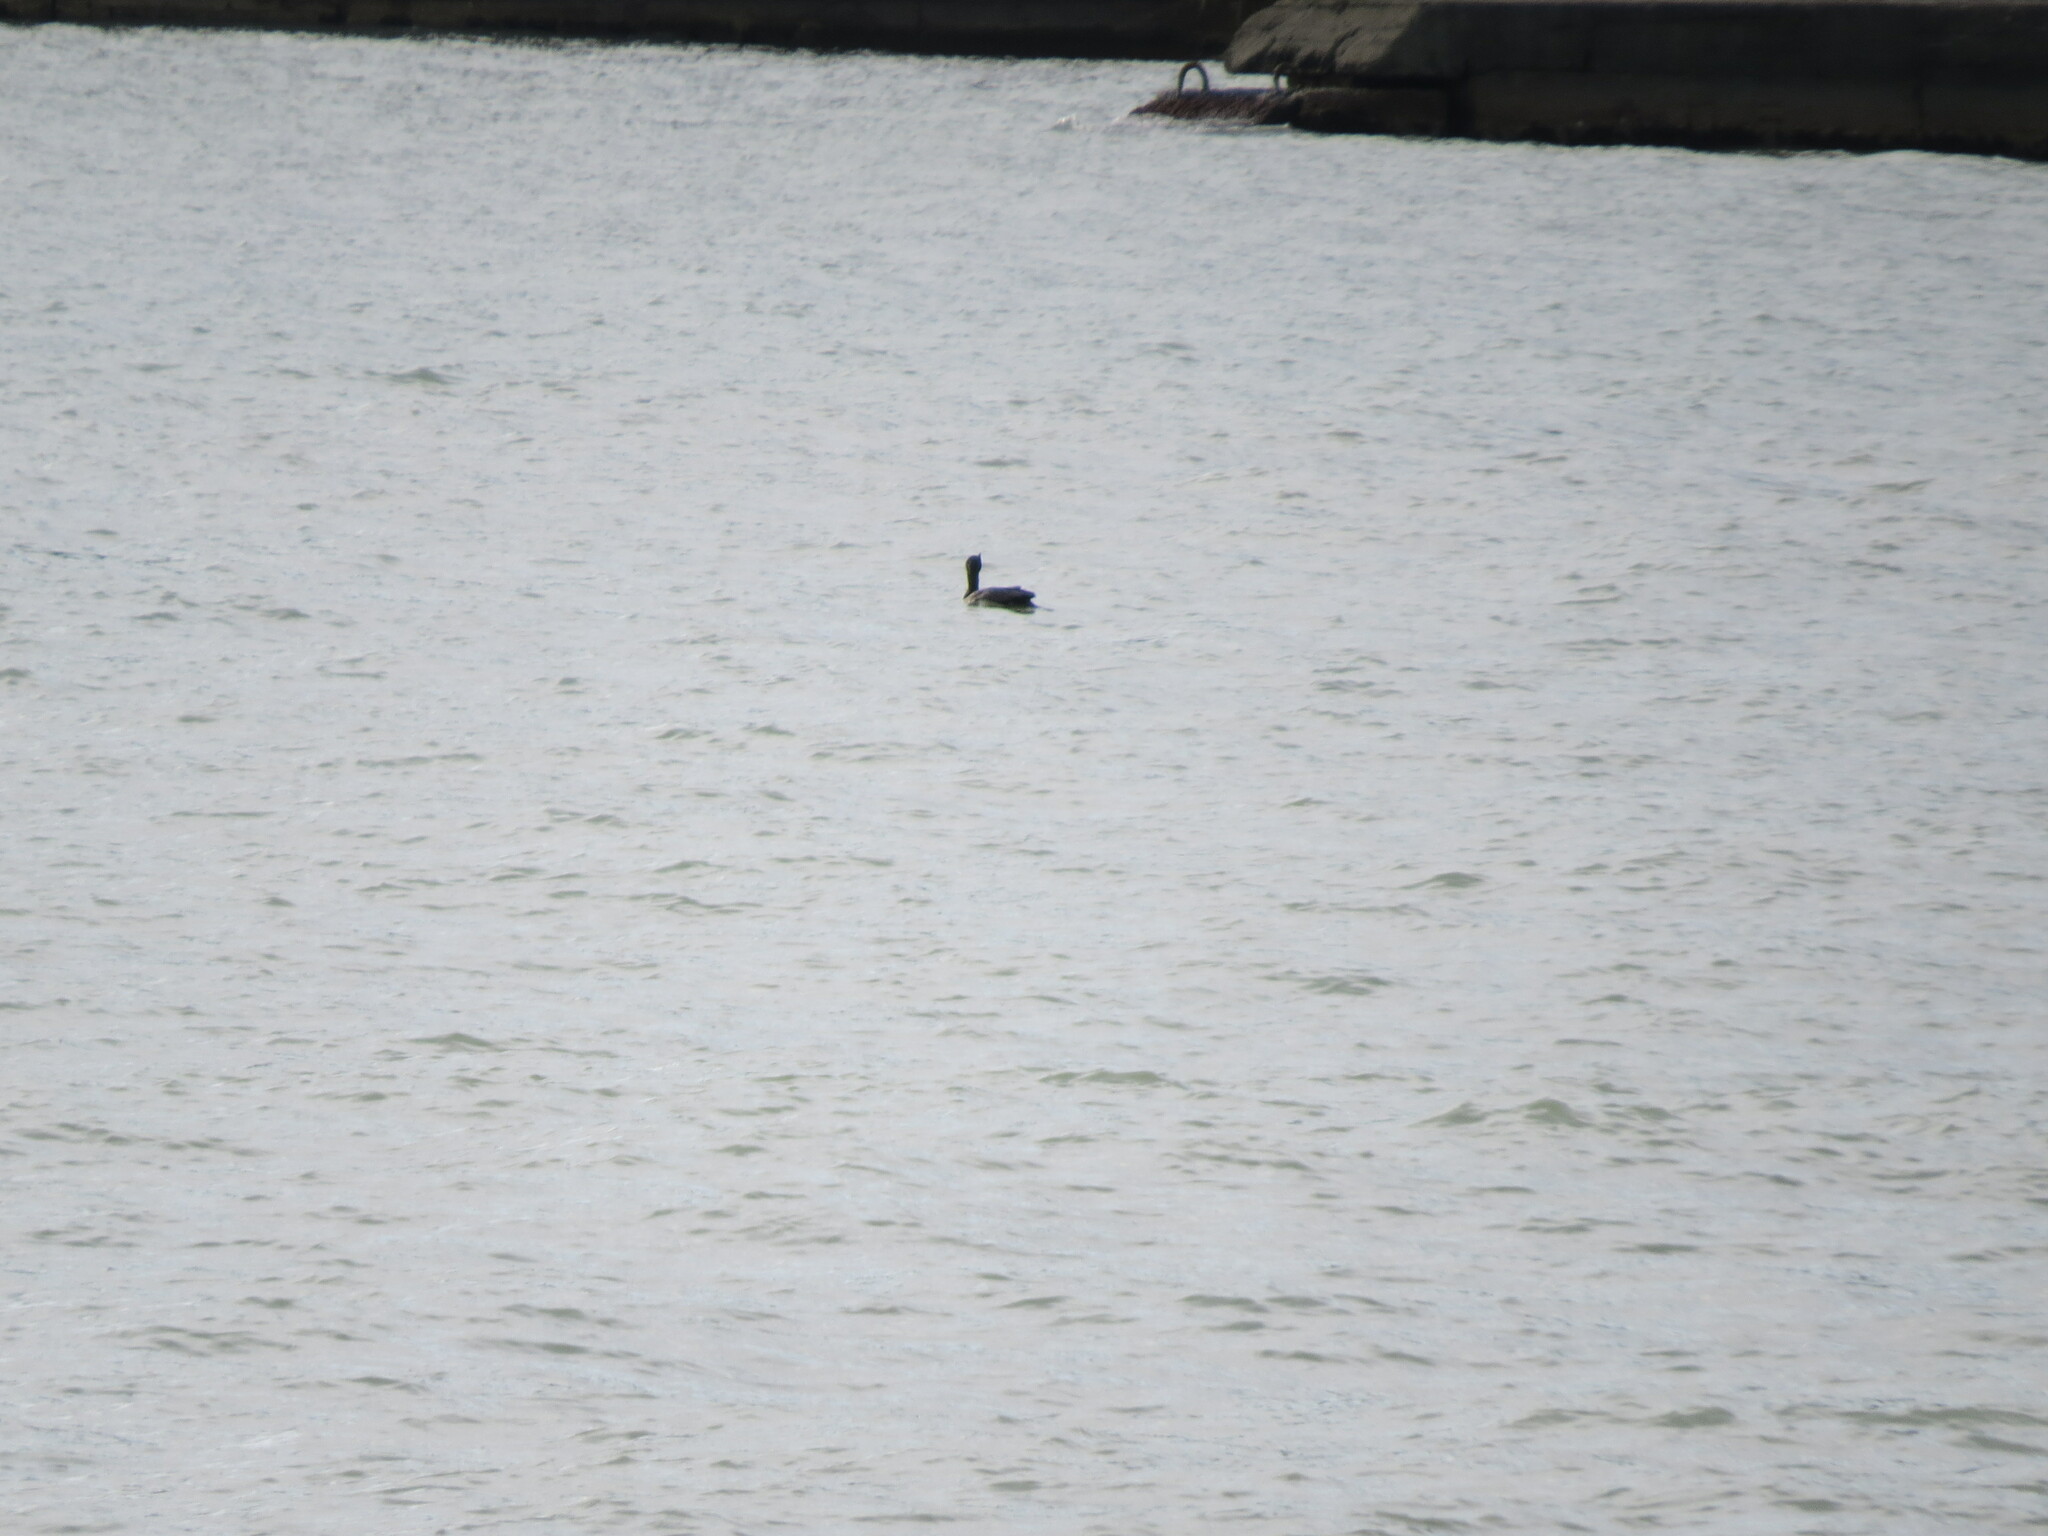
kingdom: Animalia
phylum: Chordata
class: Aves
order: Suliformes
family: Phalacrocoracidae
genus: Phalacrocorax
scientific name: Phalacrocorax carbo
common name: Great cormorant
